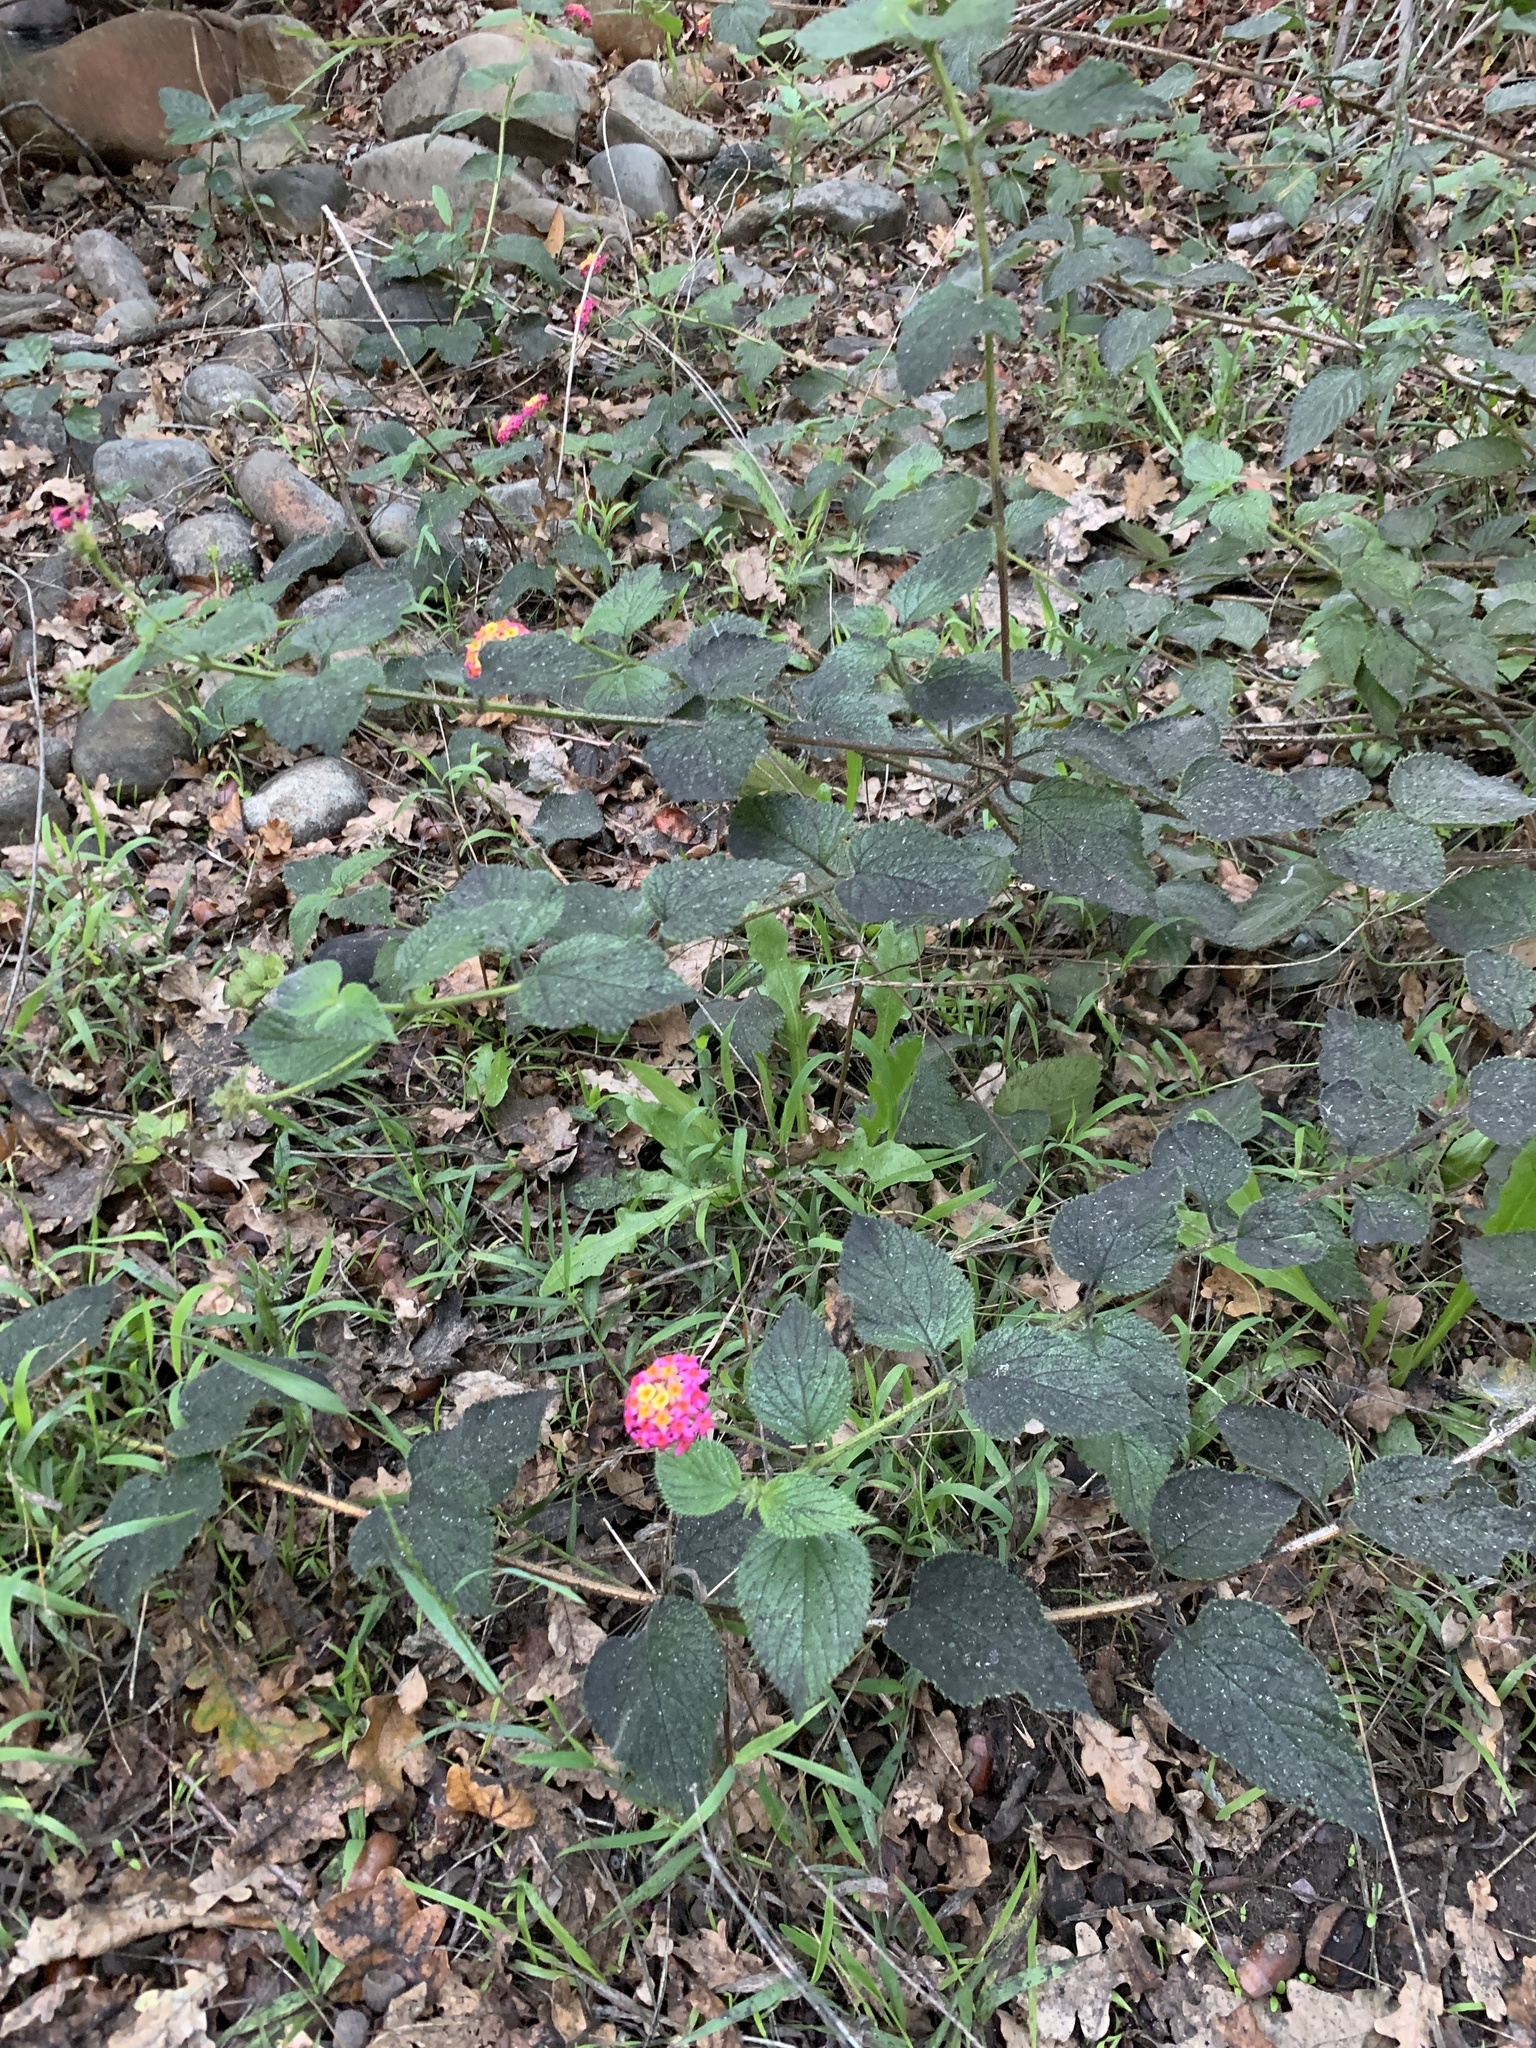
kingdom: Plantae
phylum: Tracheophyta
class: Magnoliopsida
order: Lamiales
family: Verbenaceae
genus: Lantana
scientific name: Lantana camara
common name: Lantana
